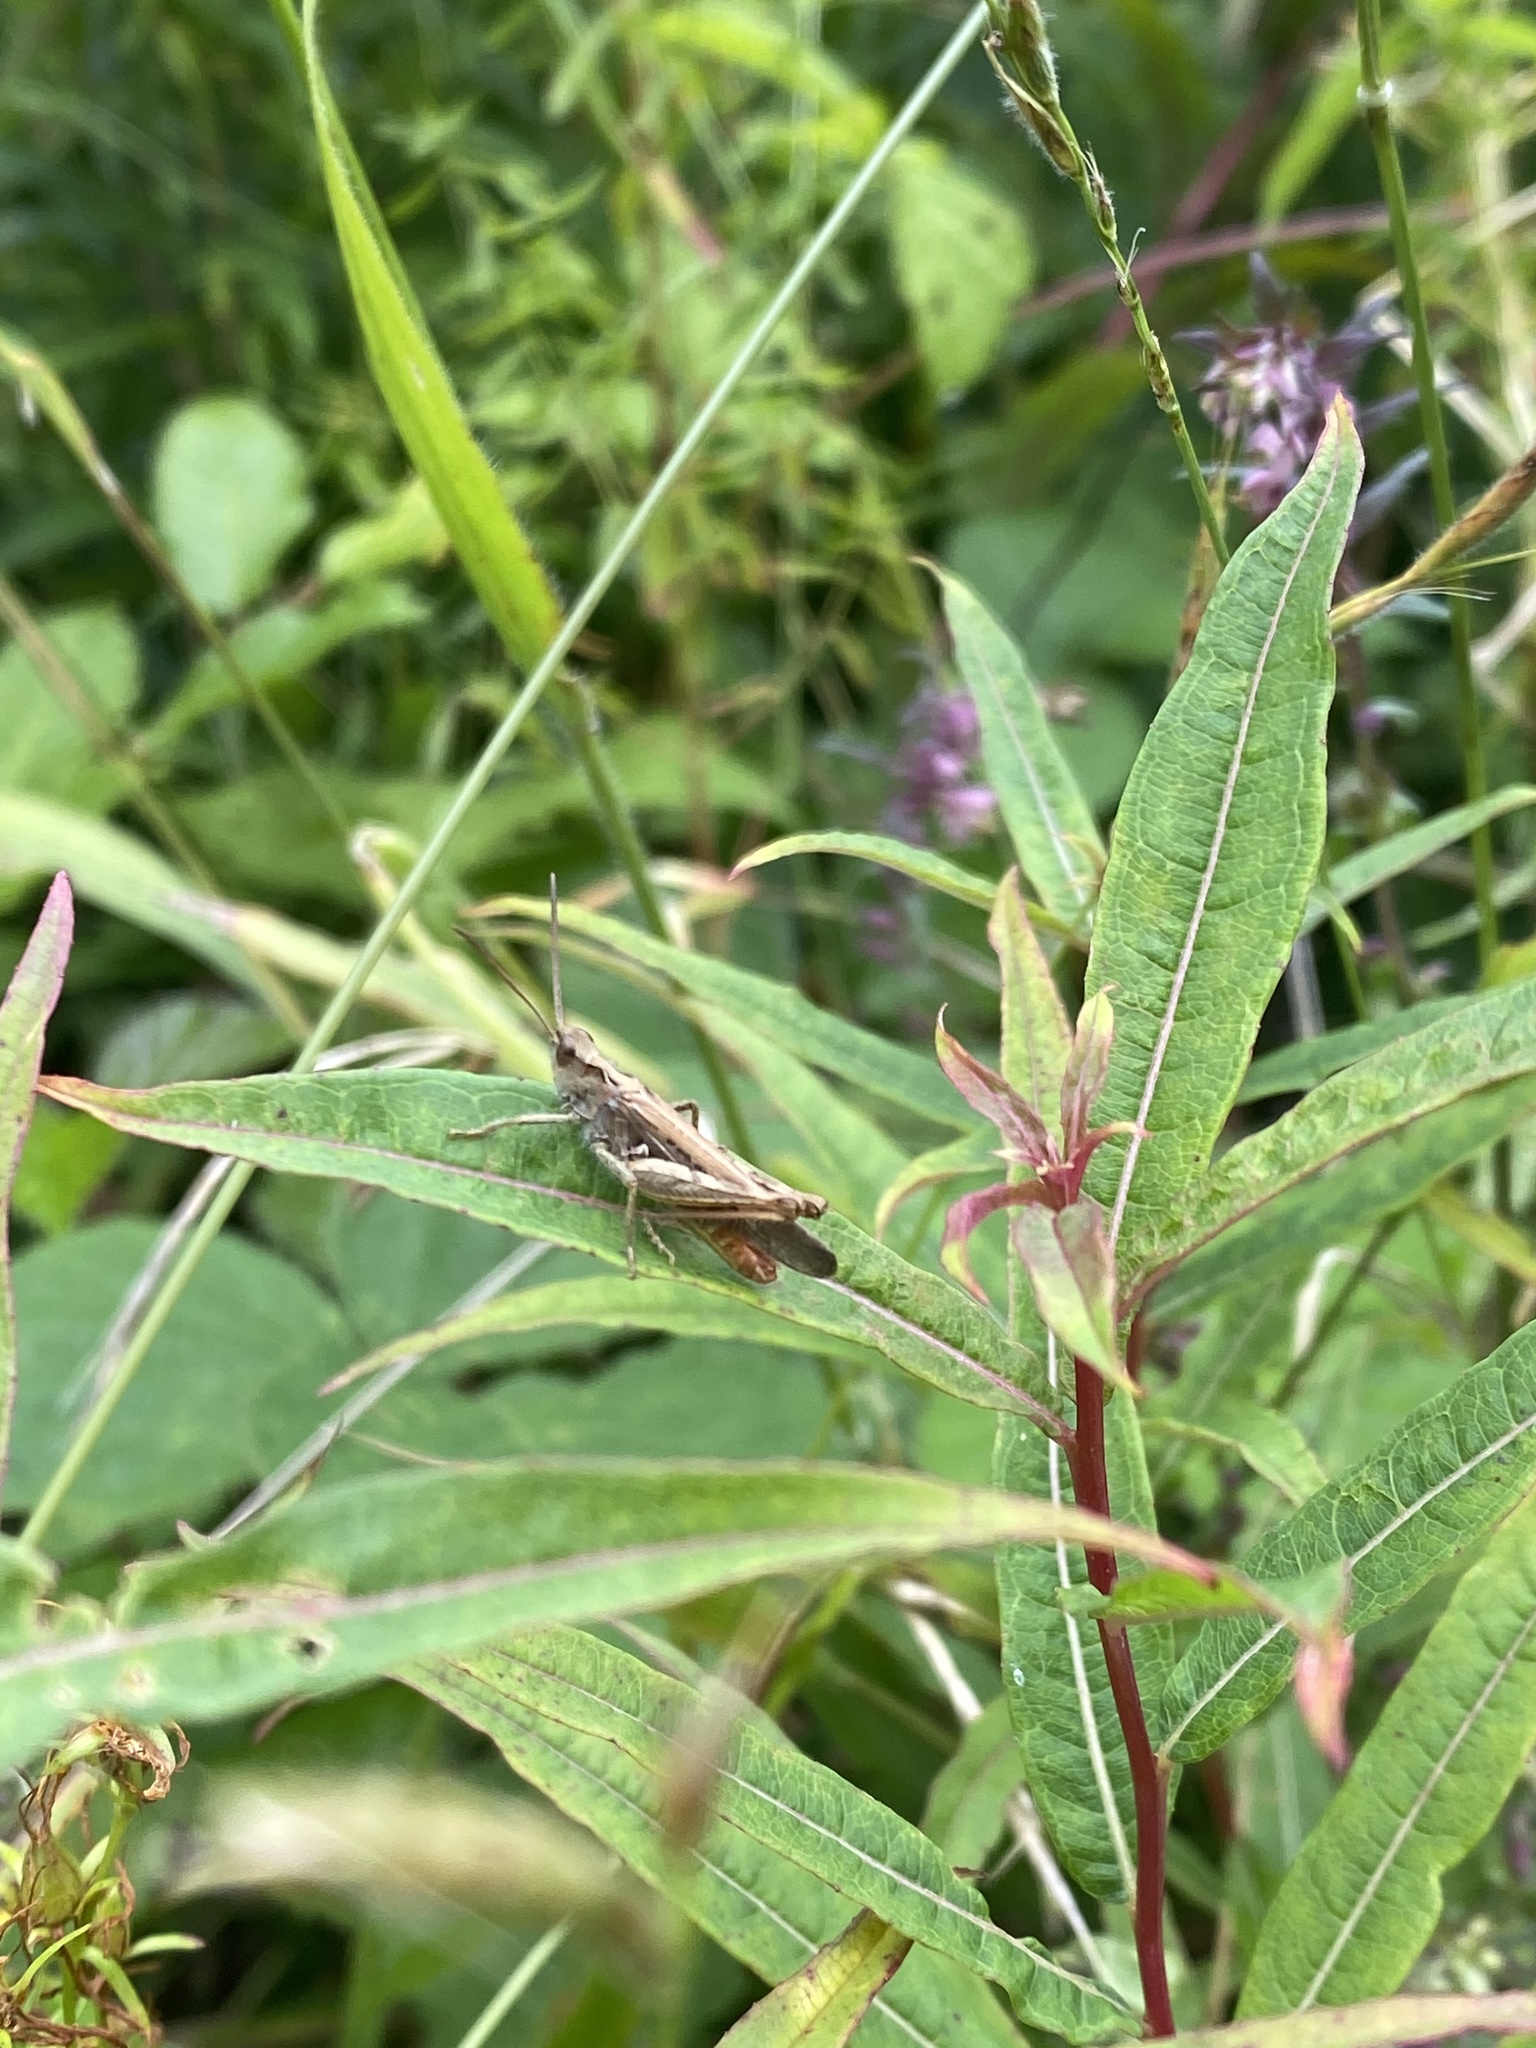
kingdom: Animalia
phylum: Arthropoda
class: Insecta
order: Orthoptera
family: Acrididae
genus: Chorthippus
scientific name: Chorthippus brunneus
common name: Field grasshopper
